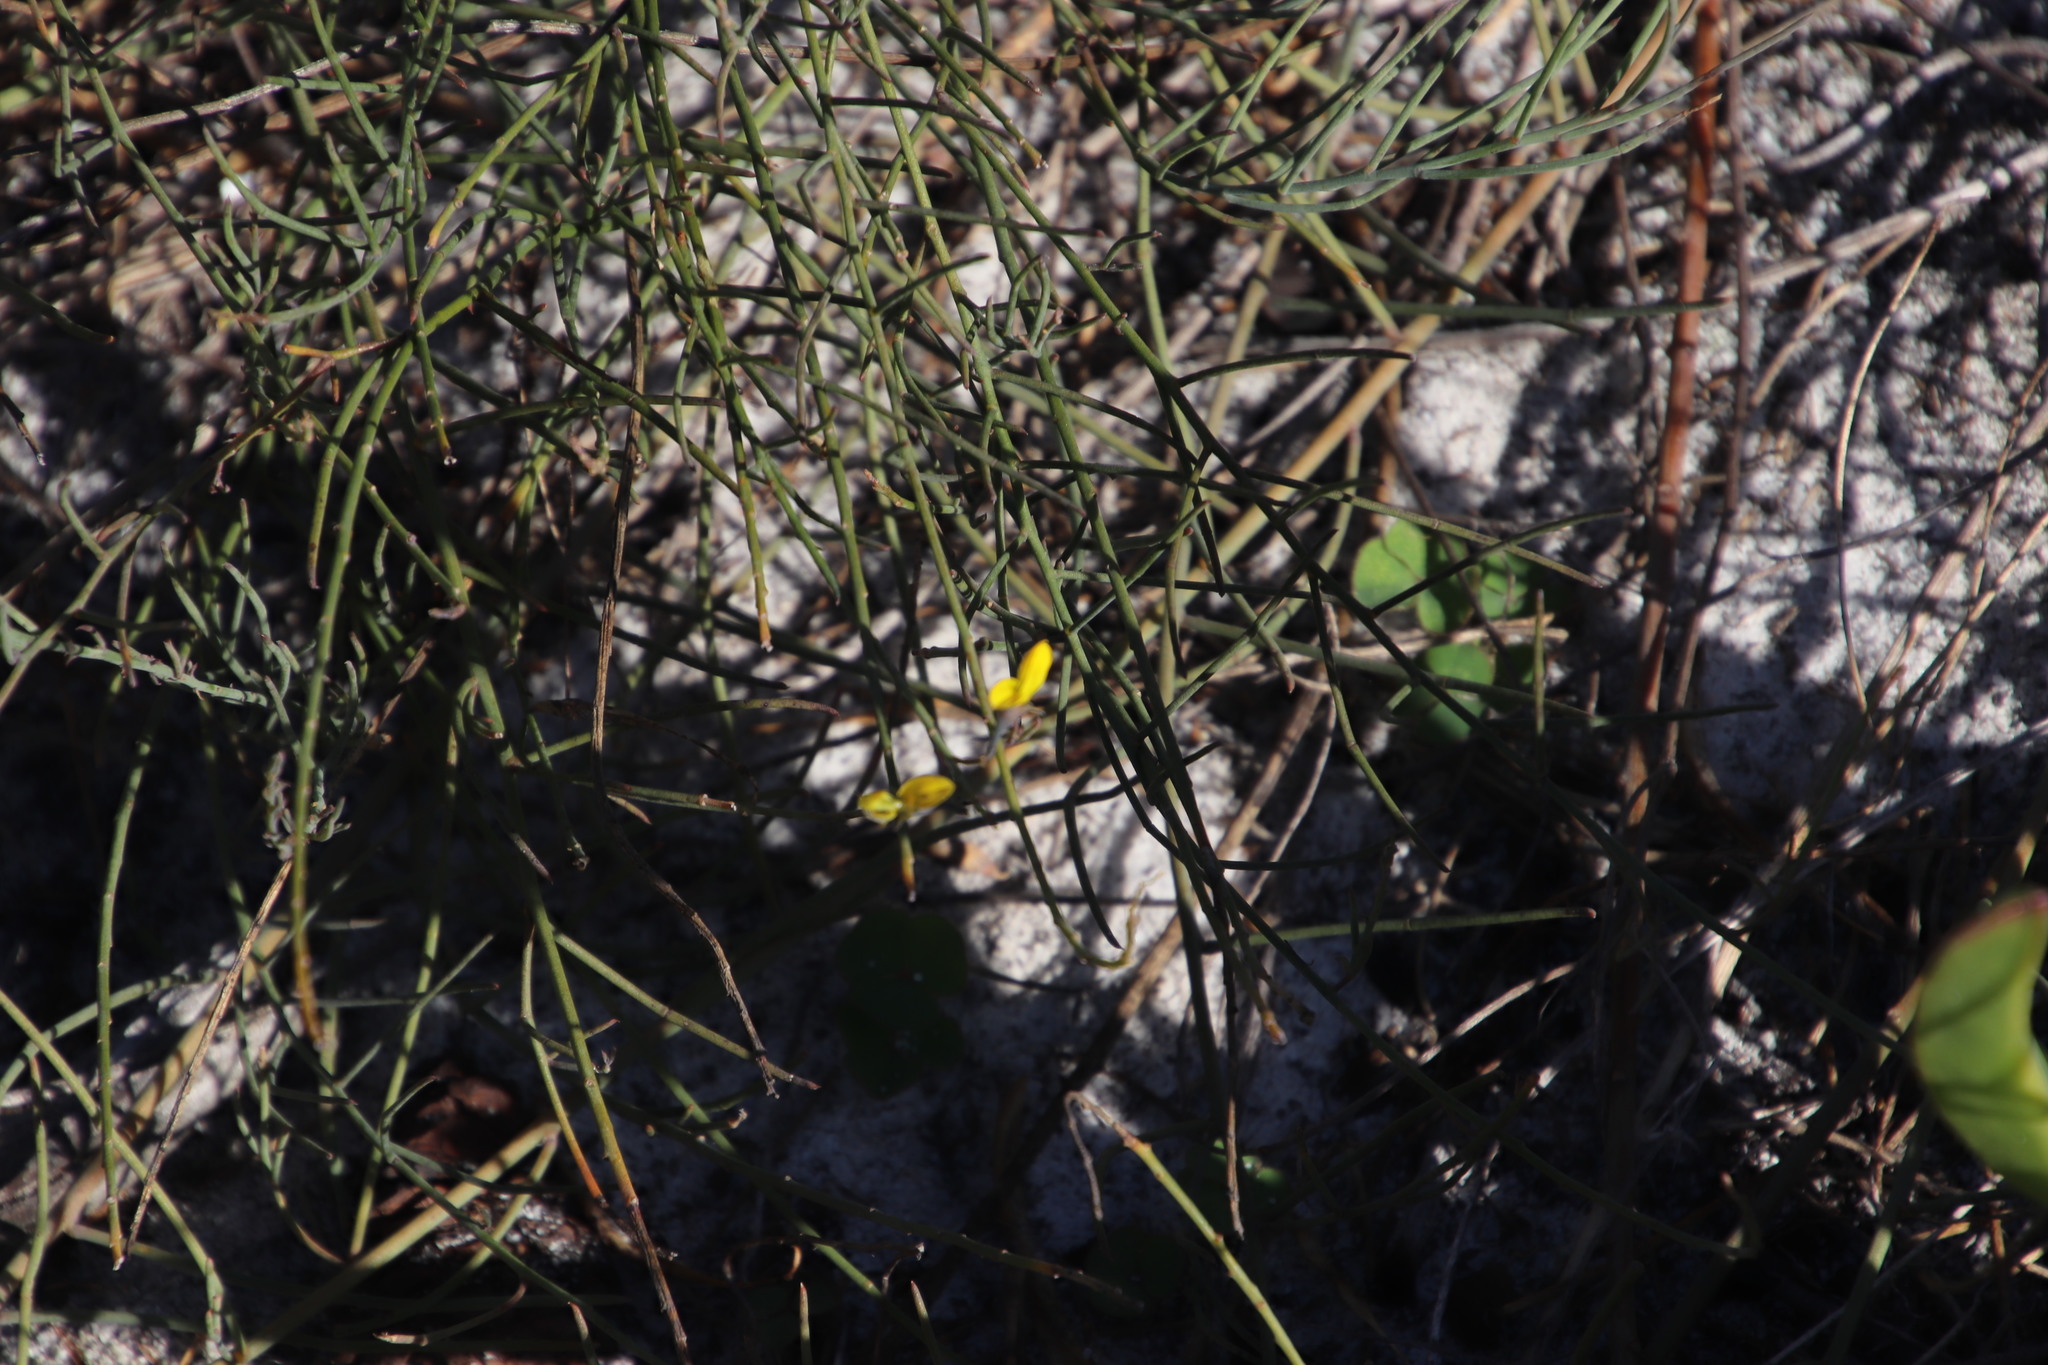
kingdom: Plantae
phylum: Tracheophyta
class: Magnoliopsida
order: Fabales
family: Fabaceae
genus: Lebeckia
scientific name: Lebeckia contaminata
